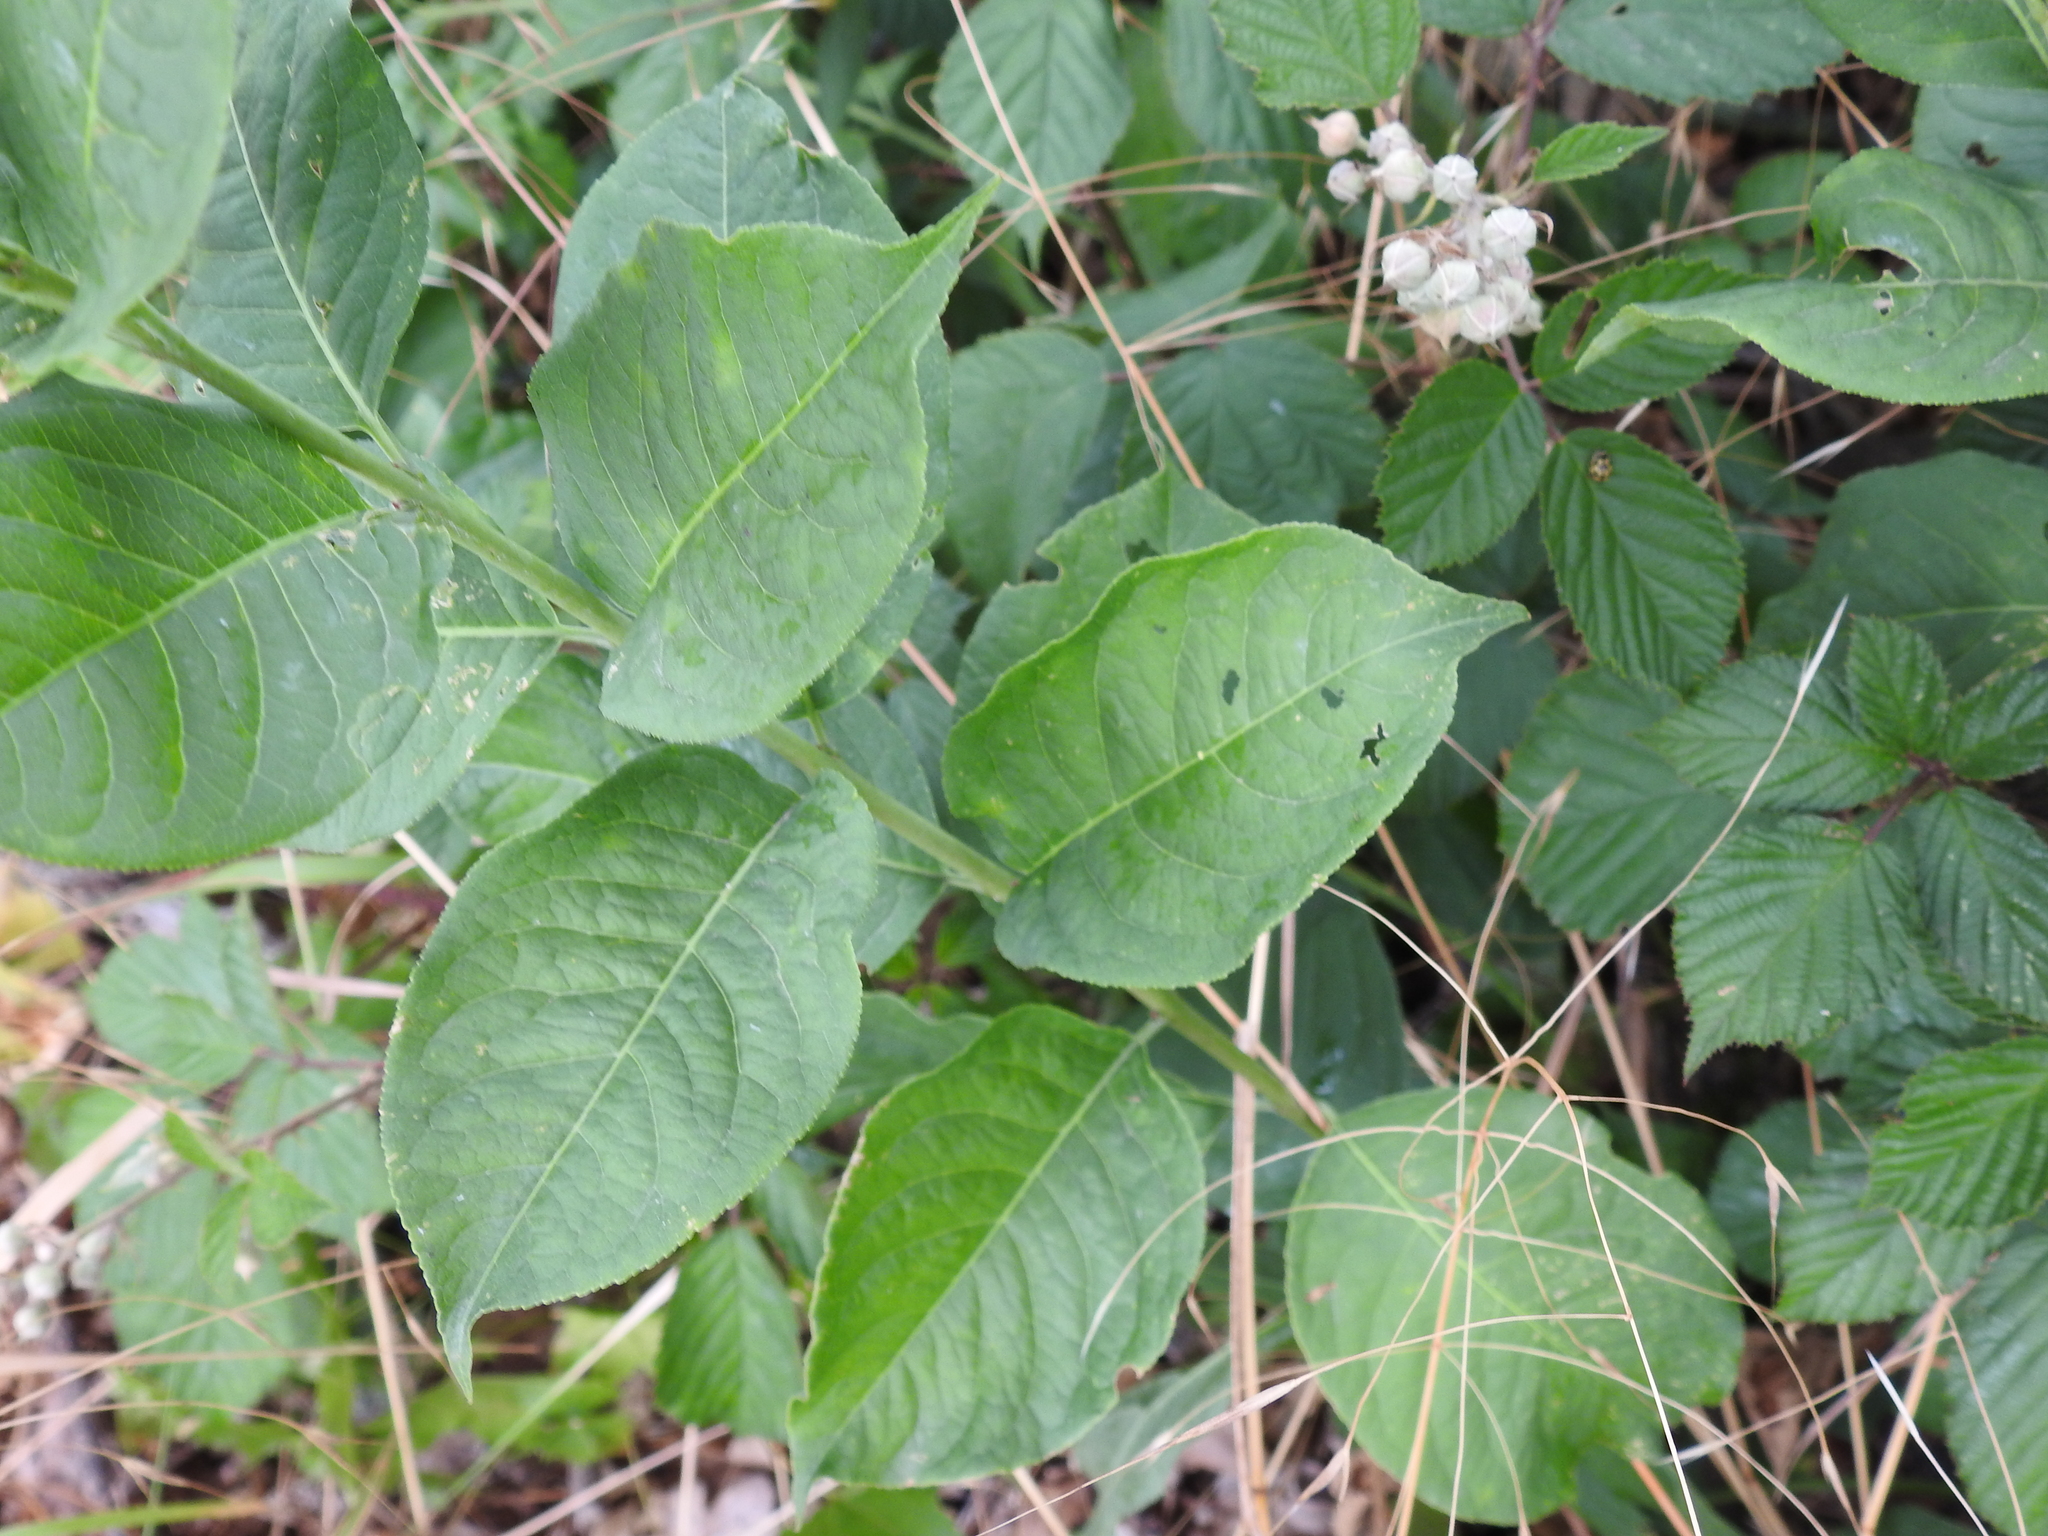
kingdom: Plantae
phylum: Tracheophyta
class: Magnoliopsida
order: Celastrales
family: Celastraceae
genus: Euonymus
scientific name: Euonymus europaeus
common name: Spindle
